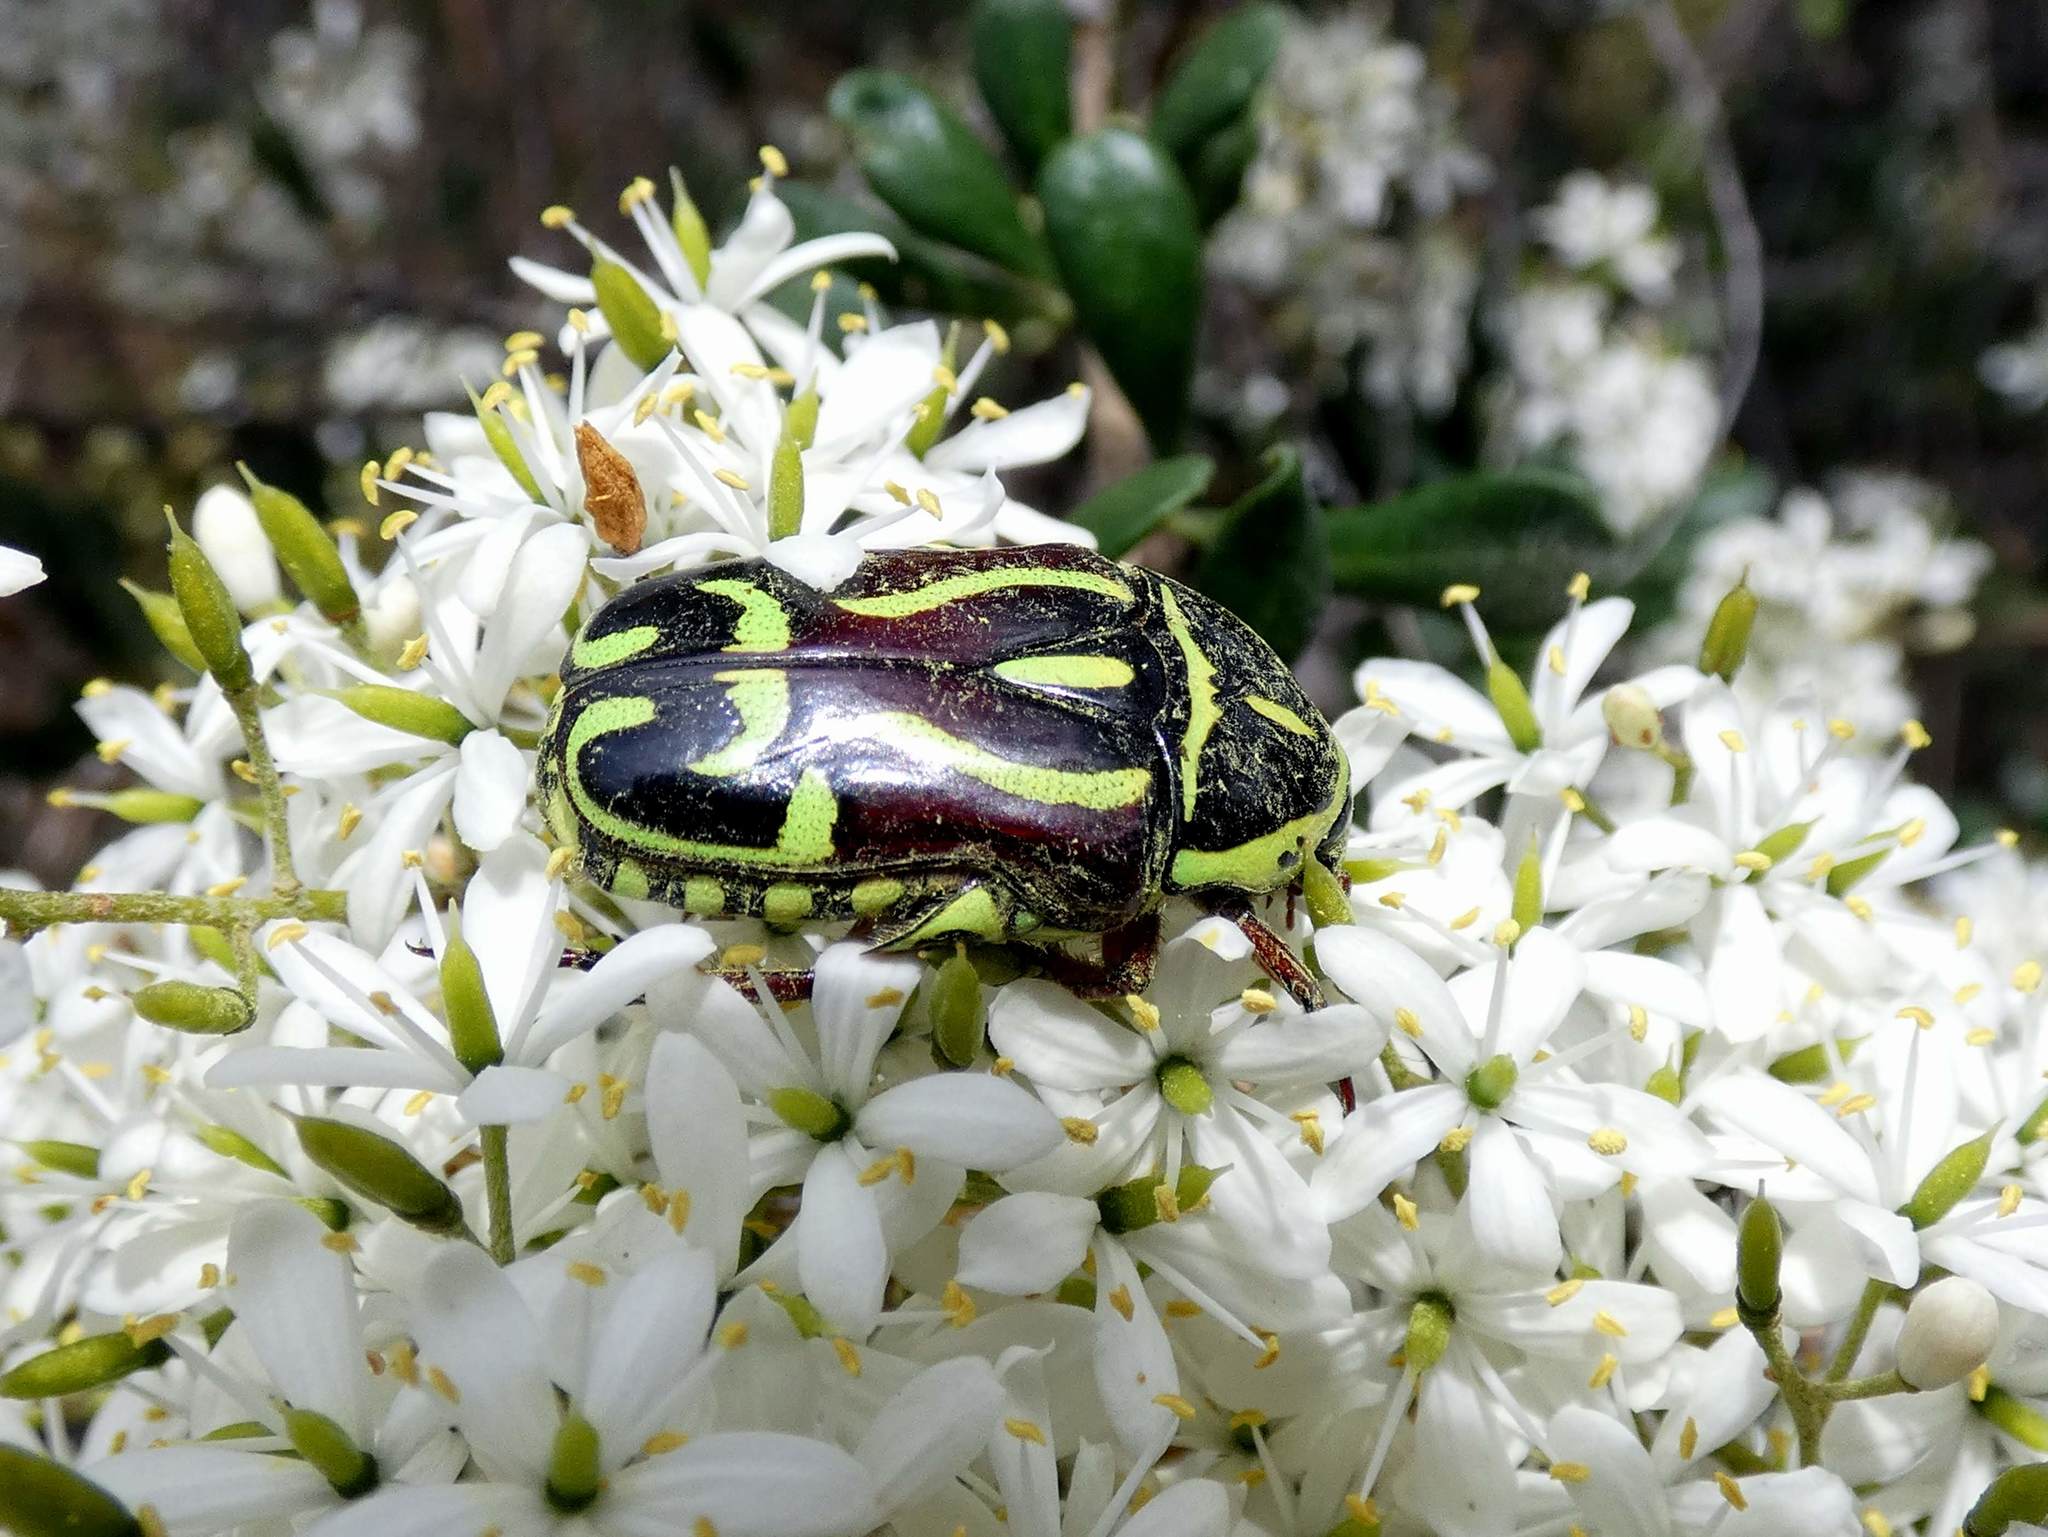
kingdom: Animalia
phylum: Arthropoda
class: Insecta
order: Coleoptera
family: Scarabaeidae
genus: Eupoecila
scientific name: Eupoecila australasiae
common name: Fiddler beetle
